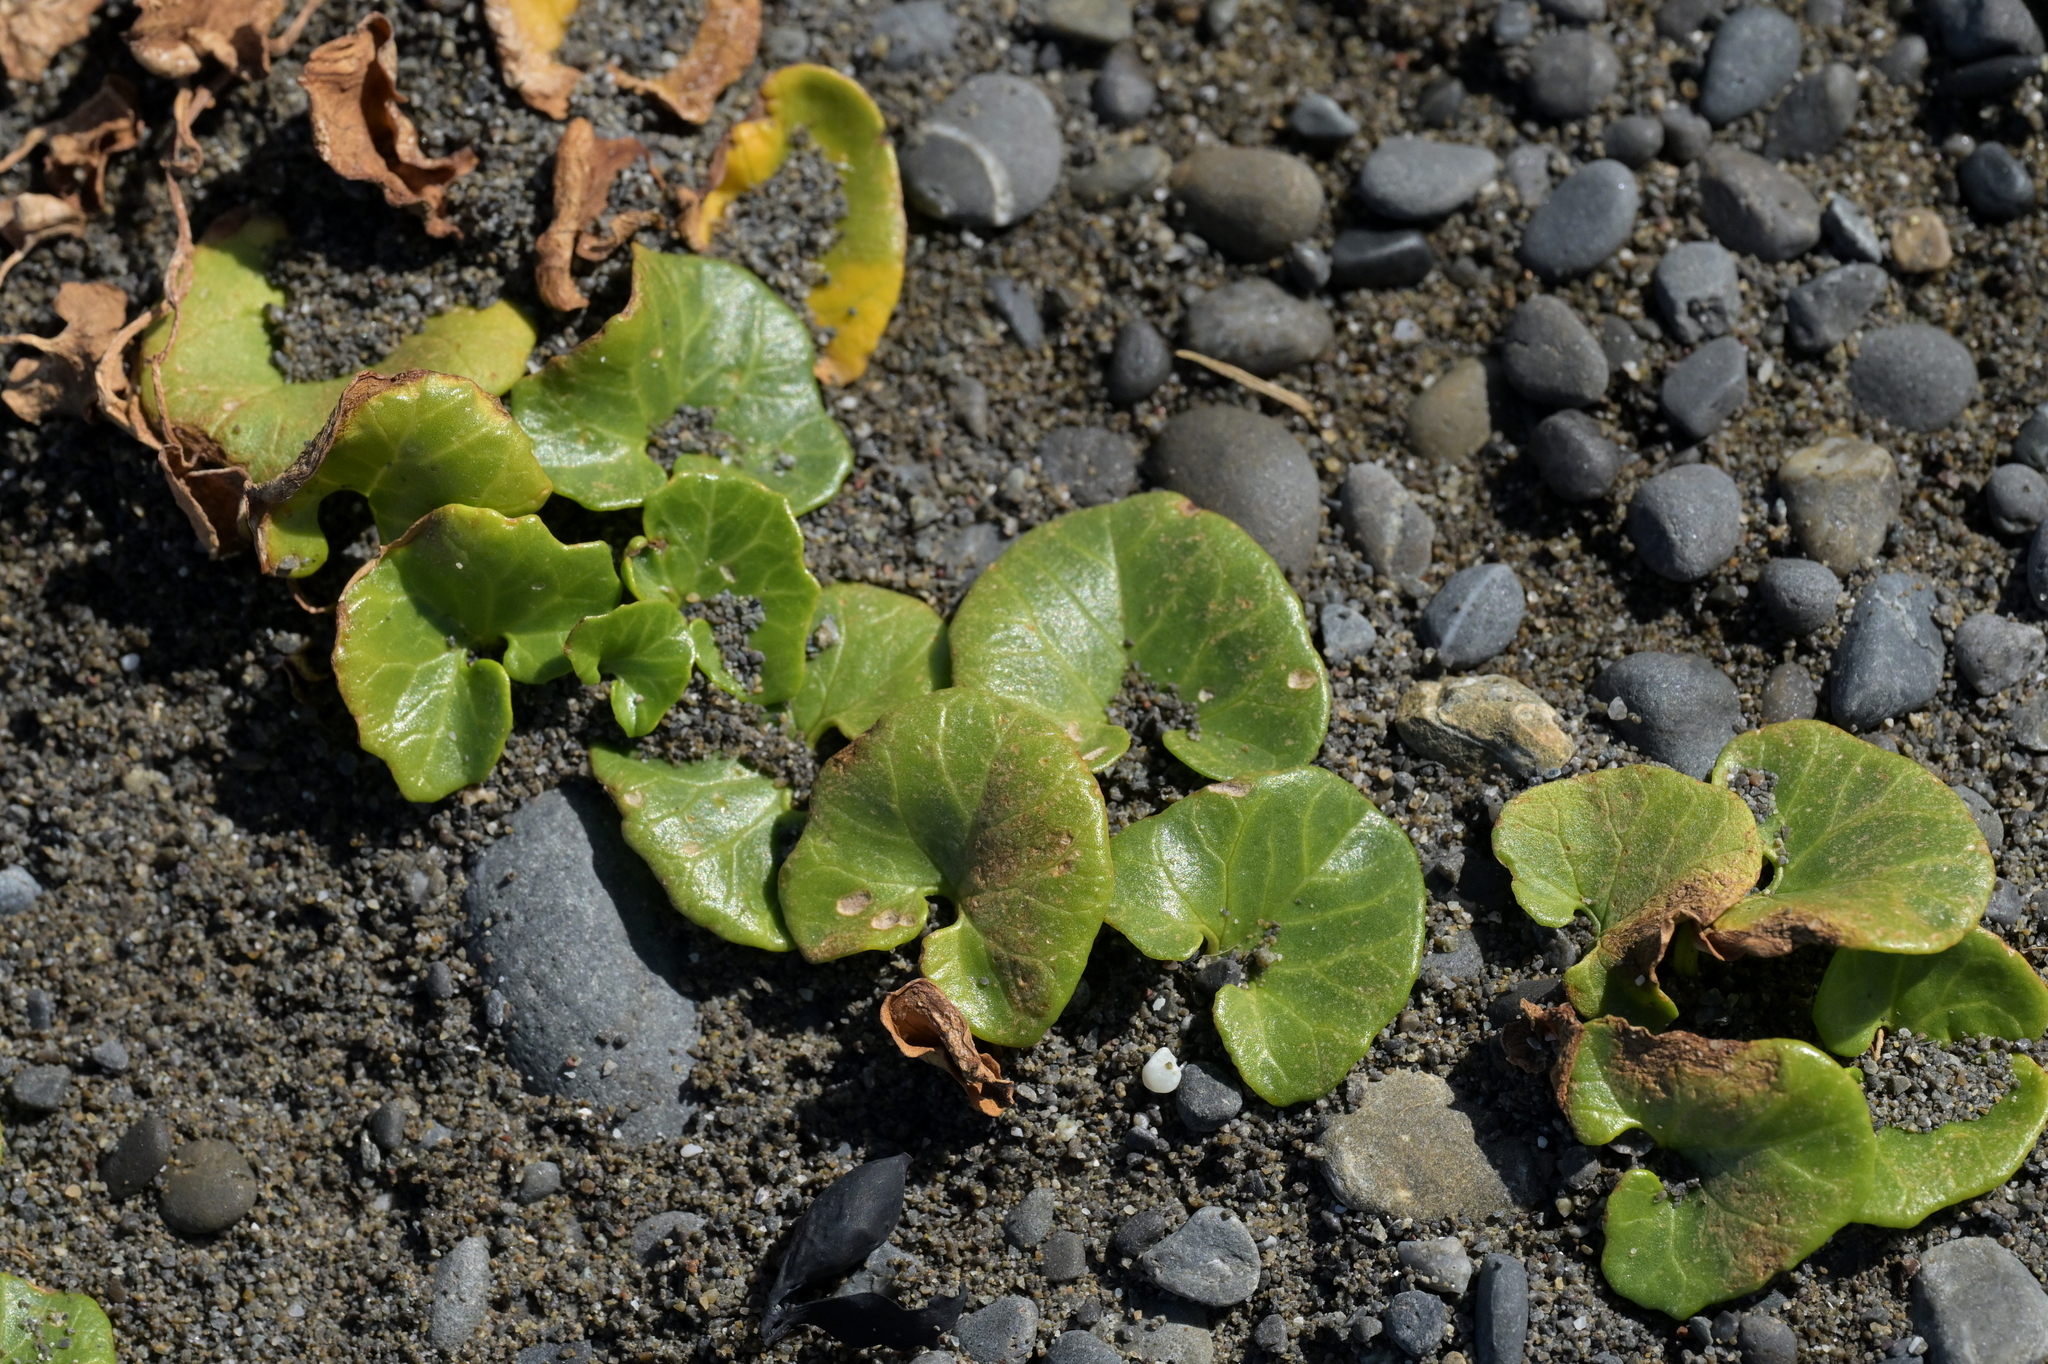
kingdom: Plantae
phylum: Tracheophyta
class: Magnoliopsida
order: Solanales
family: Convolvulaceae
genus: Calystegia
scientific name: Calystegia soldanella
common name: Sea bindweed
